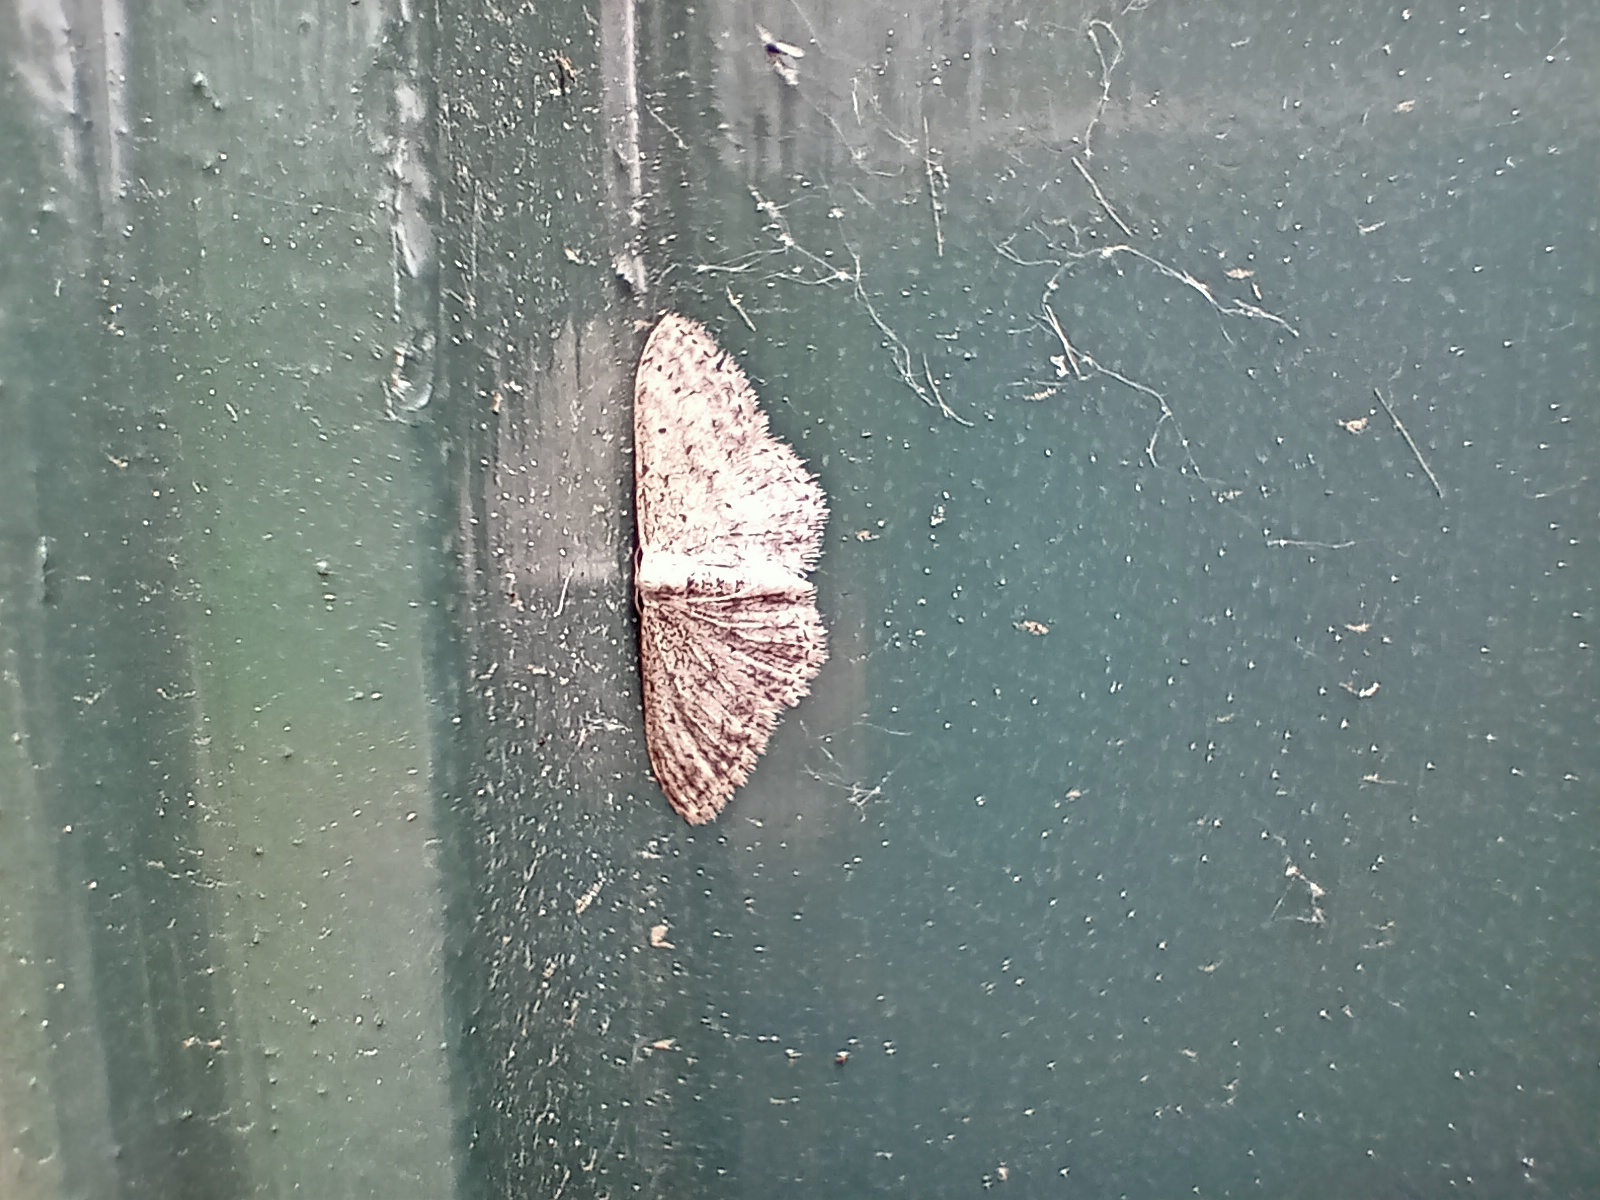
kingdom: Animalia
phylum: Arthropoda
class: Insecta
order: Lepidoptera
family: Geometridae
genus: Idaea
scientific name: Idaea seriata
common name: Small dusty wave
